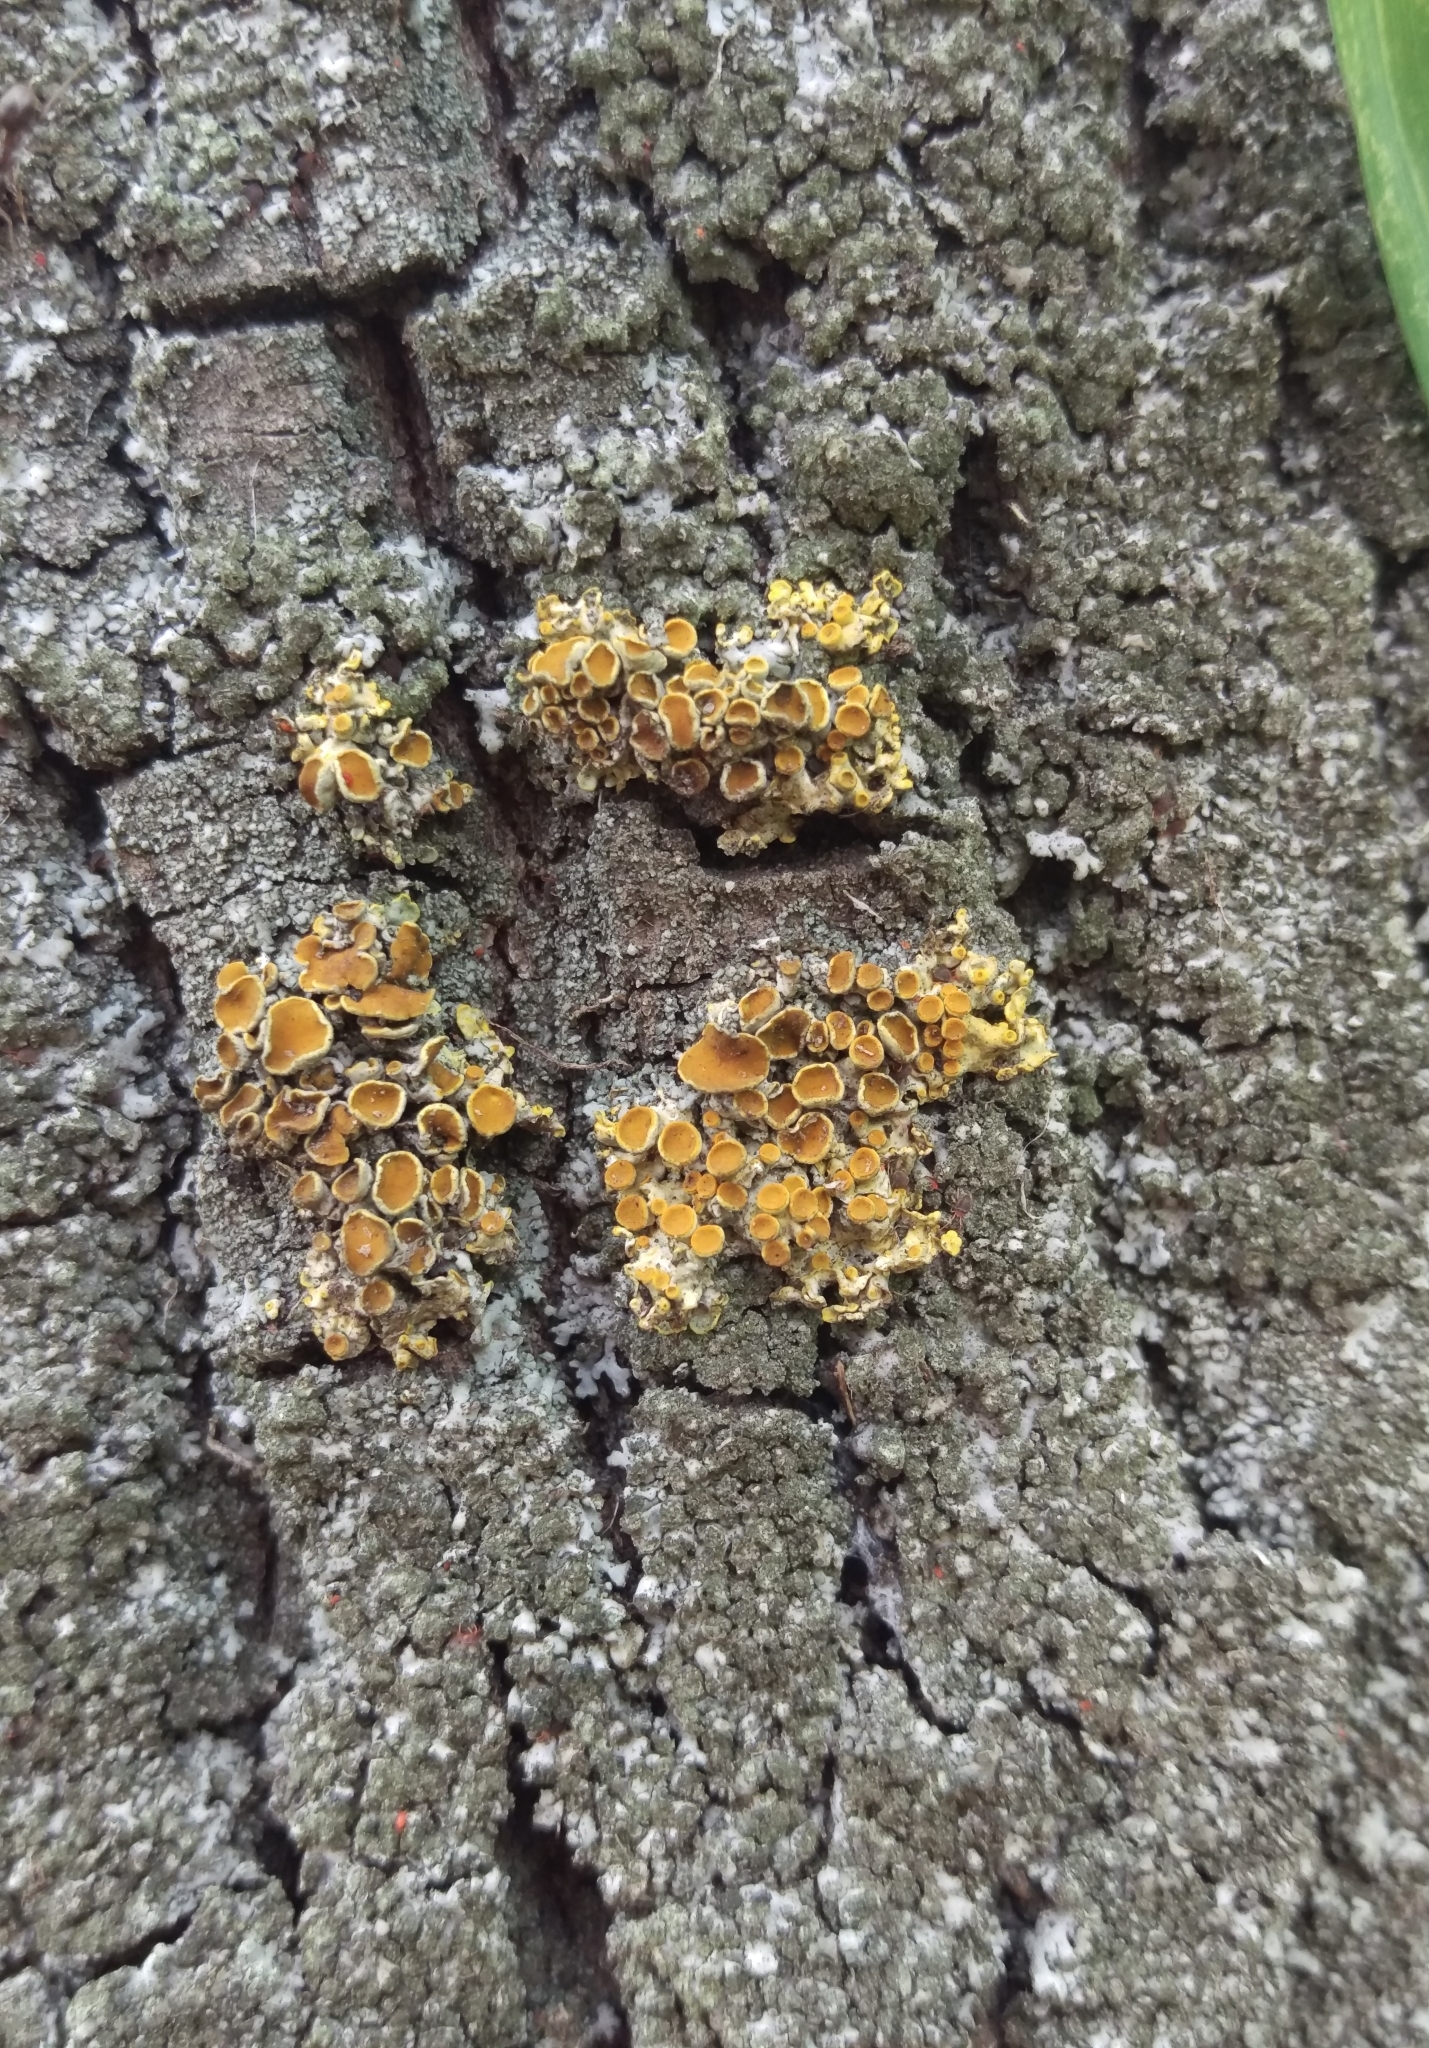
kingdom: Fungi
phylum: Ascomycota
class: Lecanoromycetes
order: Teloschistales
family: Teloschistaceae
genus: Xanthoria
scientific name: Xanthoria parietina
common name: Common orange lichen
